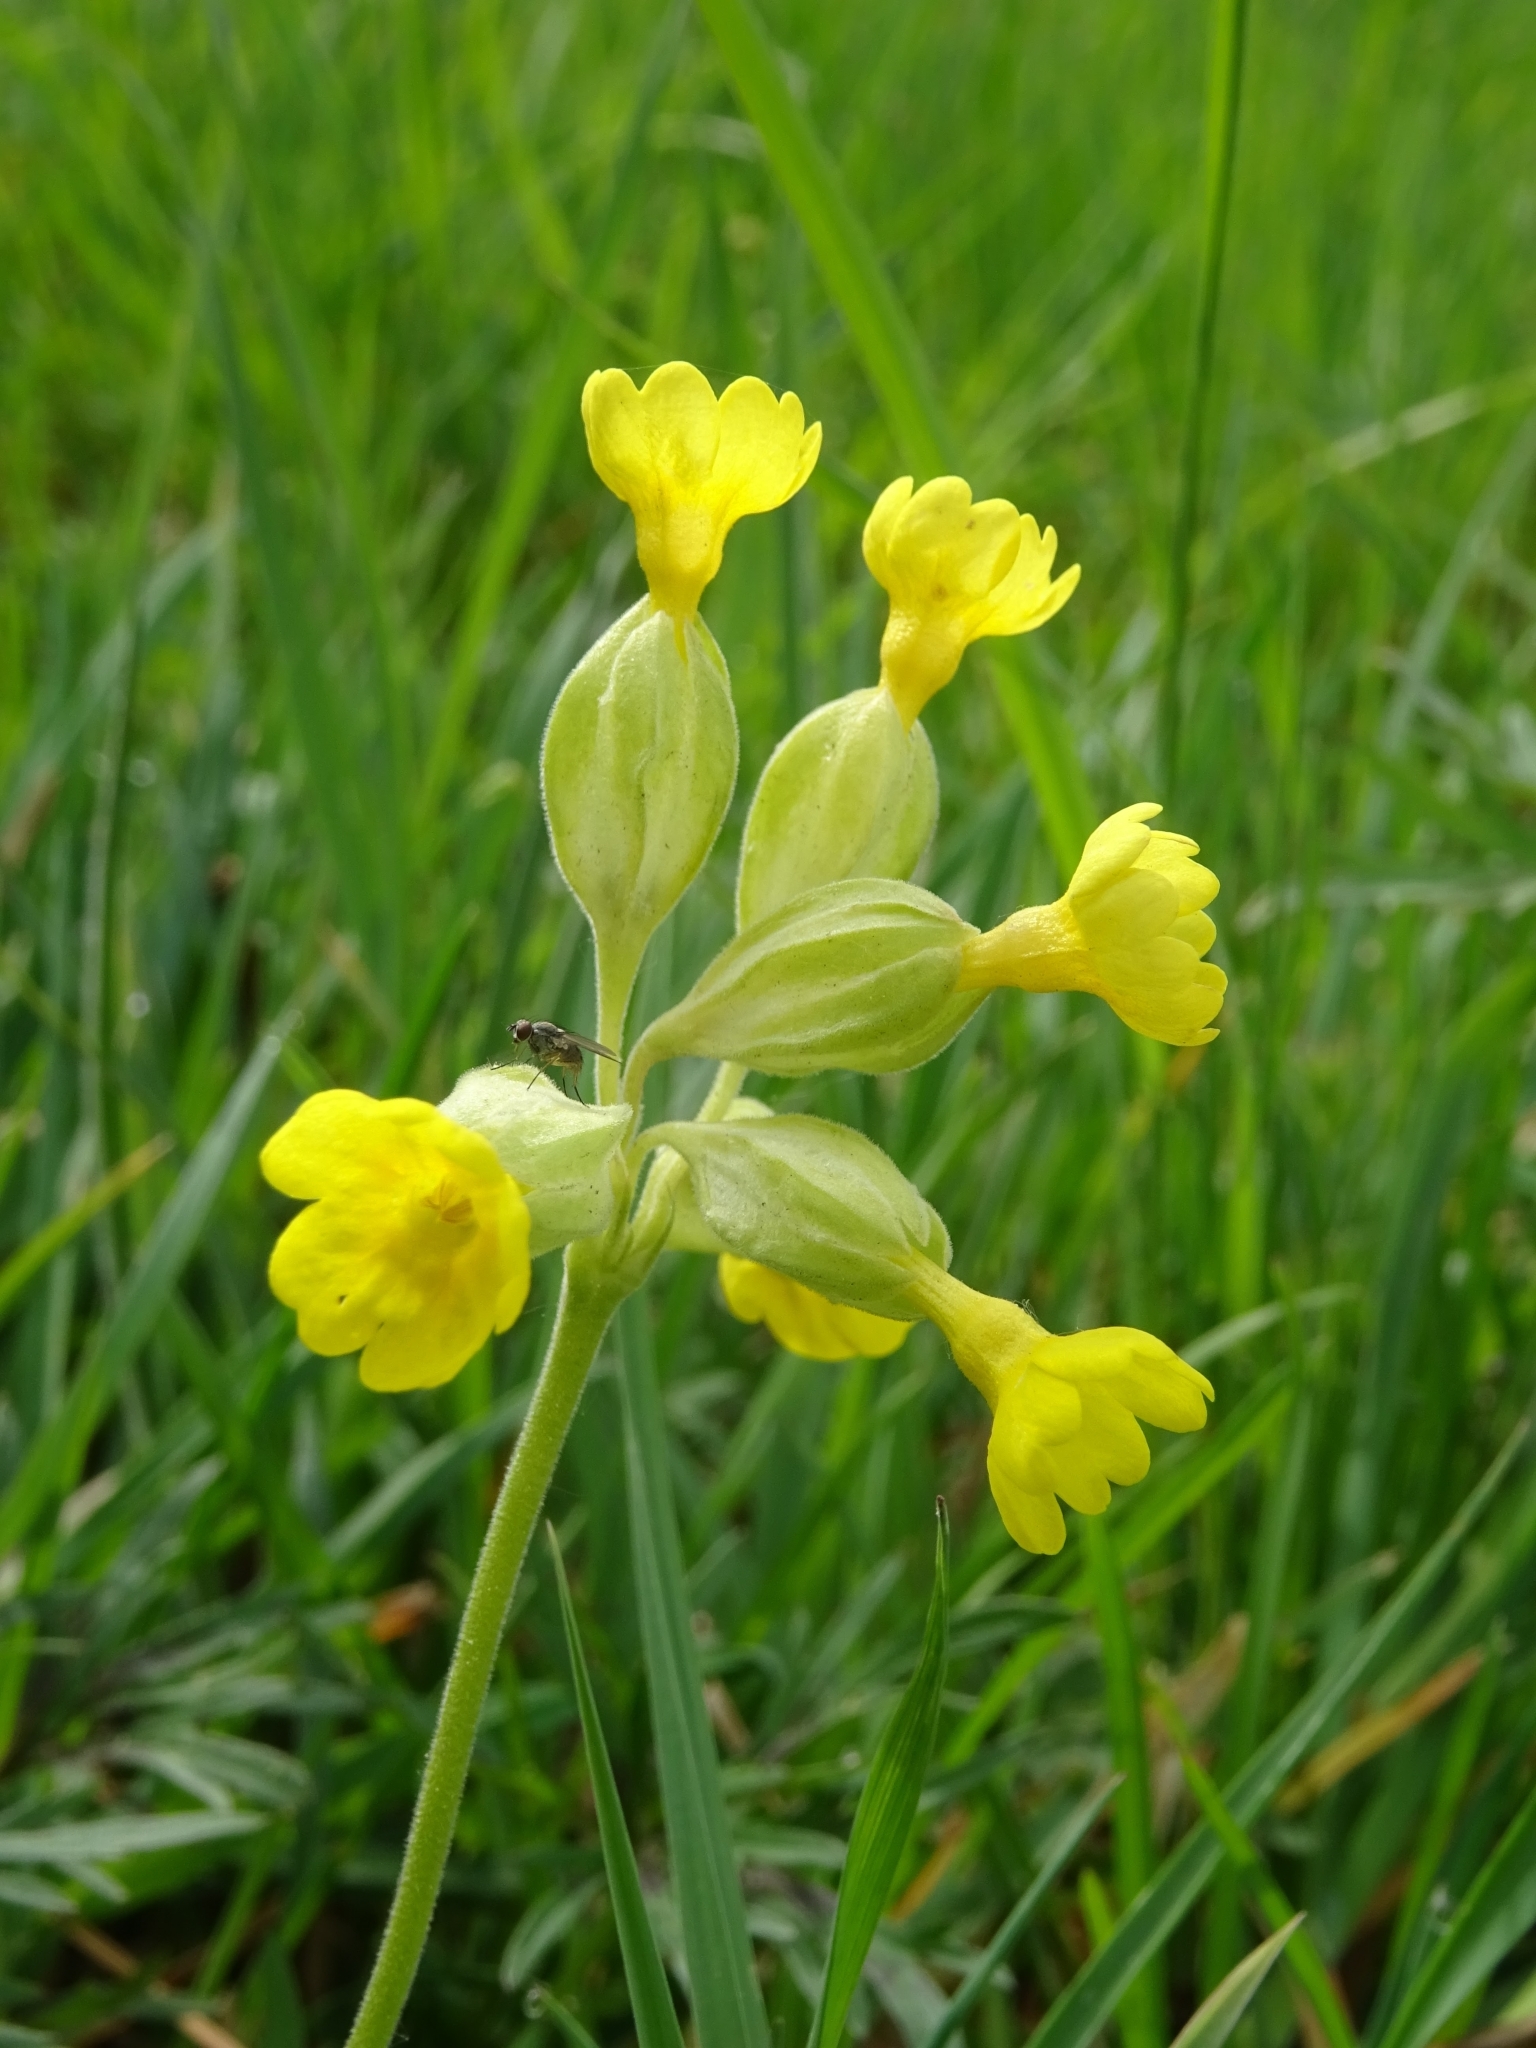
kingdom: Plantae
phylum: Tracheophyta
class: Magnoliopsida
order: Ericales
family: Primulaceae
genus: Primula
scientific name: Primula veris
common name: Cowslip
